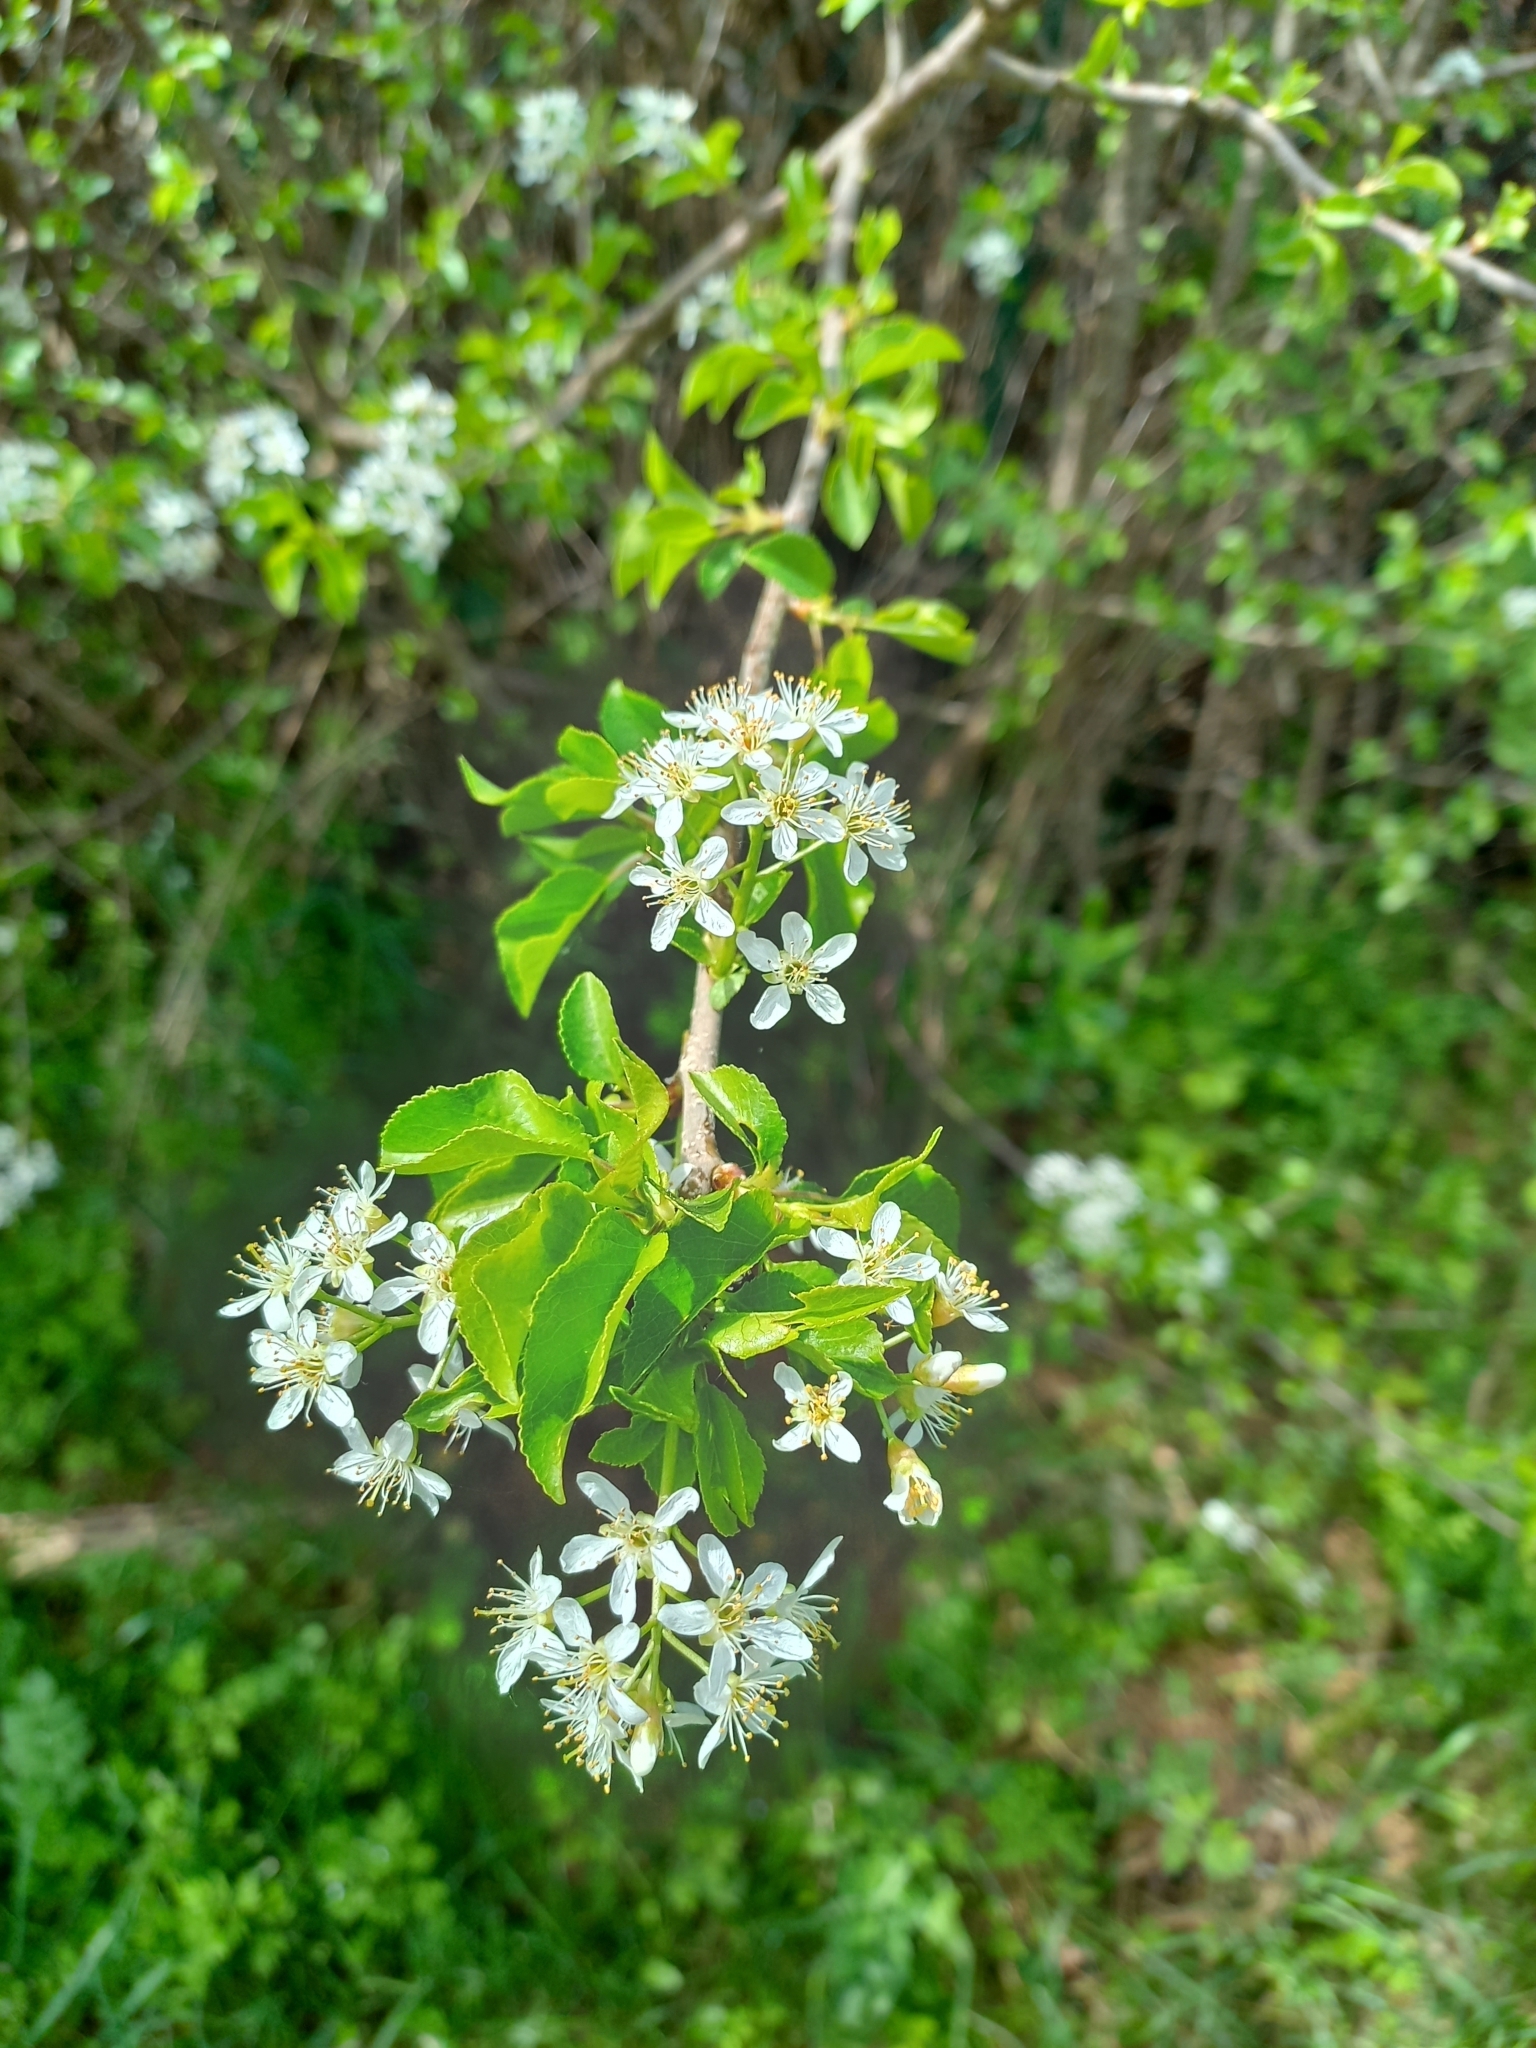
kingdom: Plantae
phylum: Tracheophyta
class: Magnoliopsida
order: Rosales
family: Rosaceae
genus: Prunus
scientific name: Prunus mahaleb
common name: Mahaleb cherry
